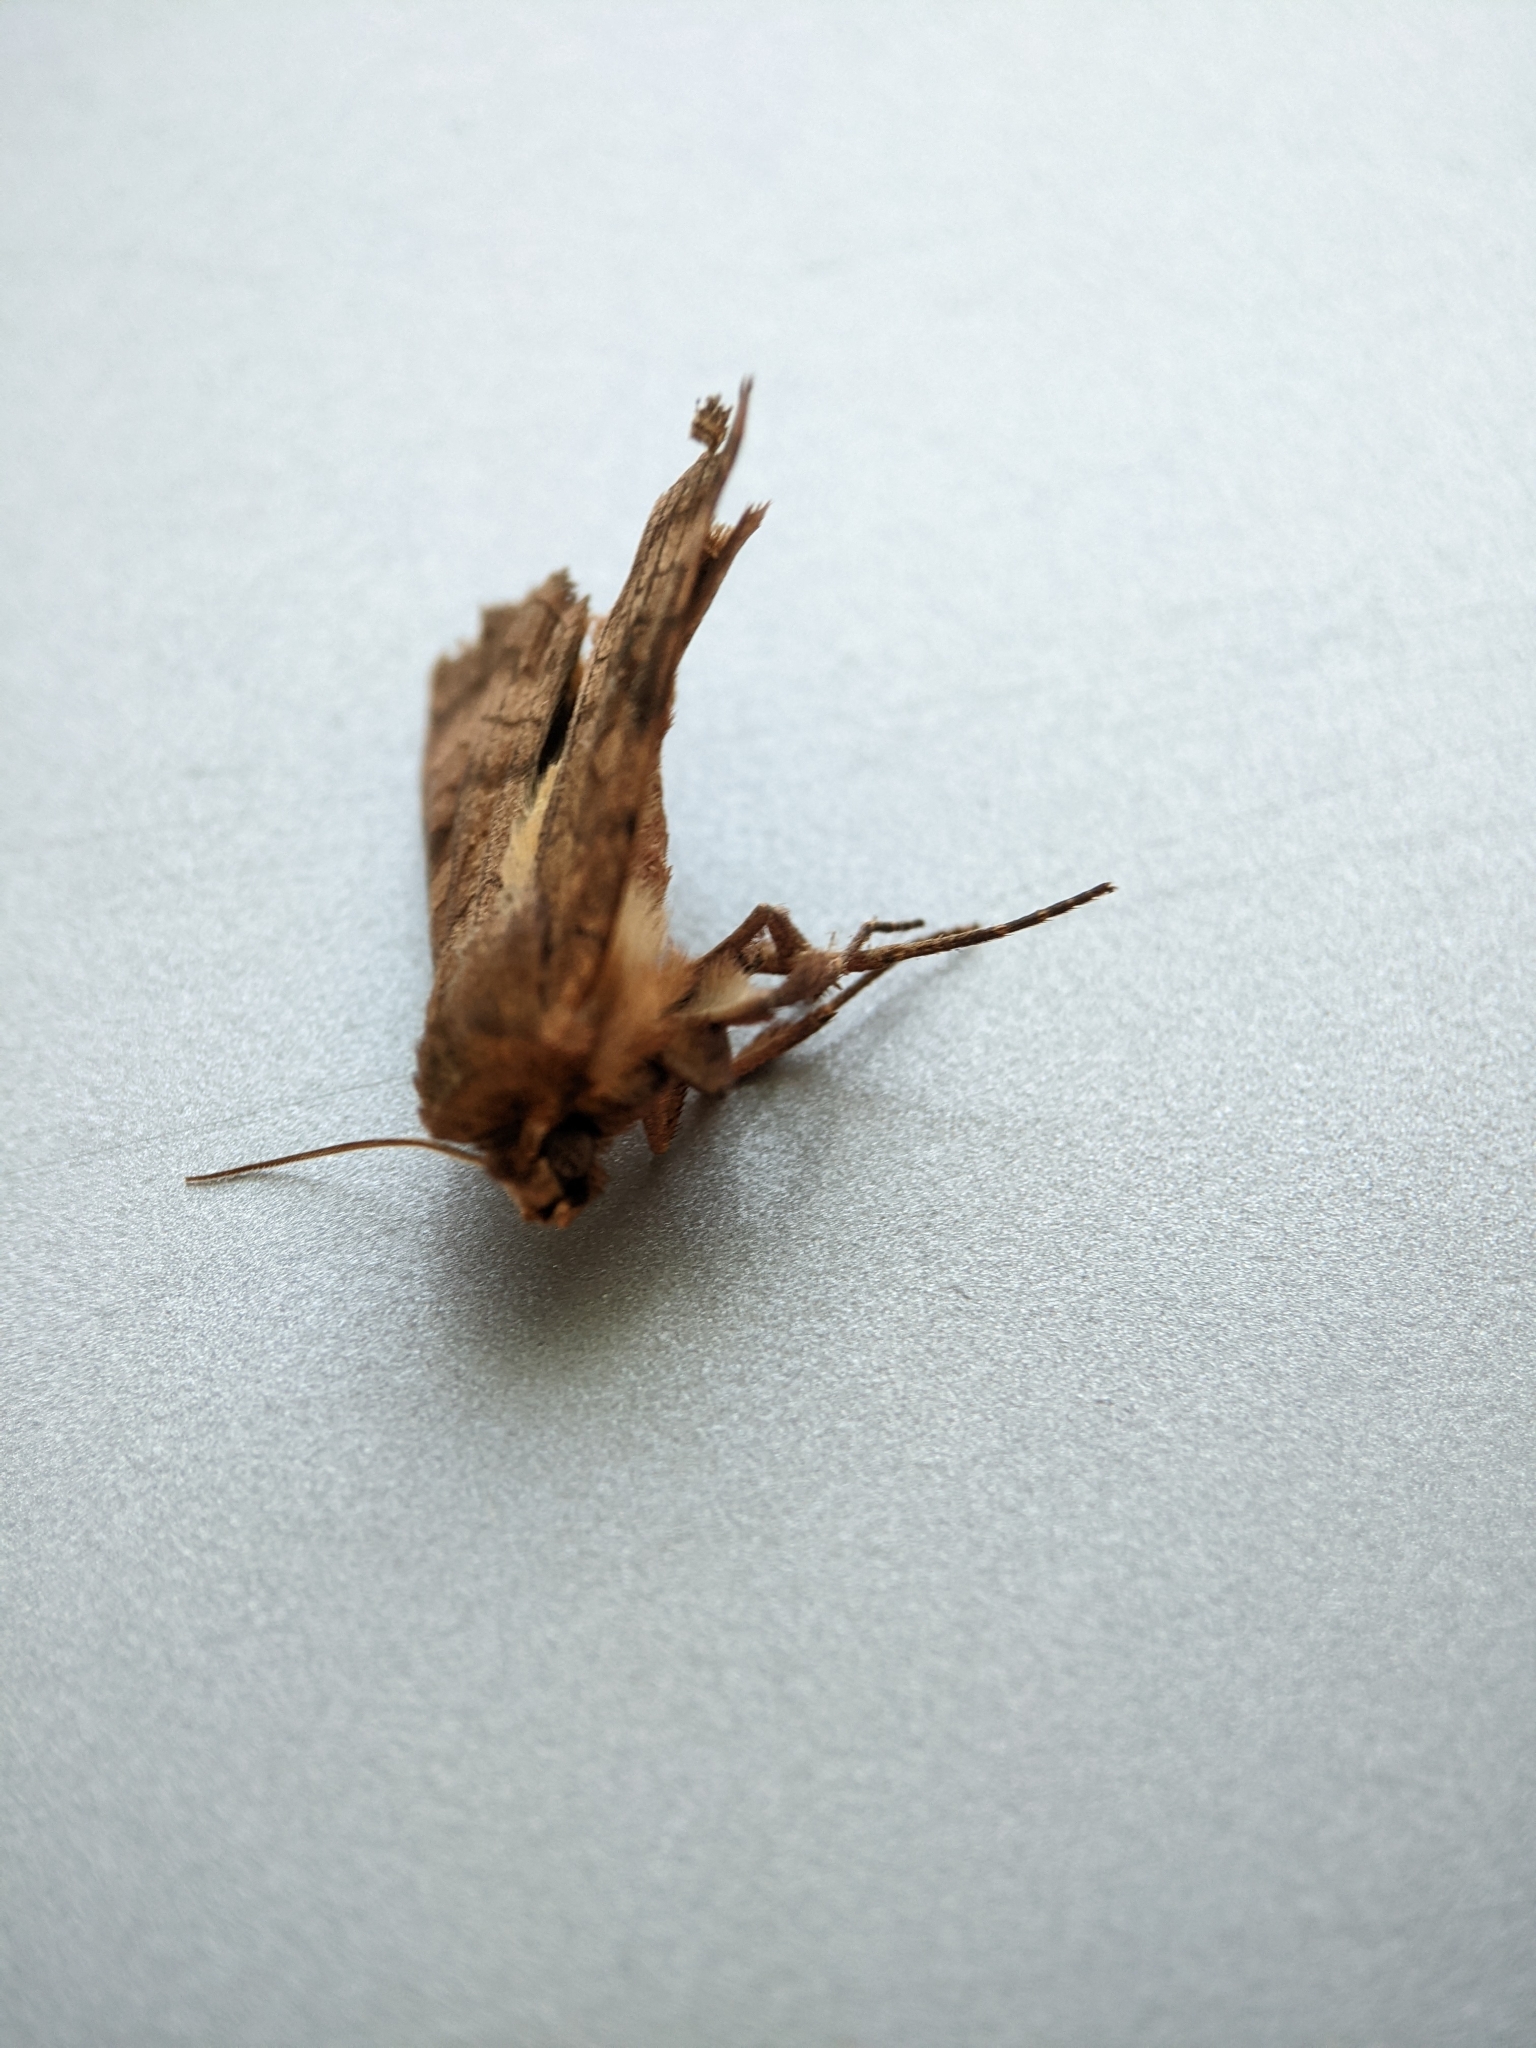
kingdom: Animalia
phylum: Arthropoda
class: Insecta
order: Lepidoptera
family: Noctuidae
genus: Xestia
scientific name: Xestia sexstrigata
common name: Six-striped rustic
